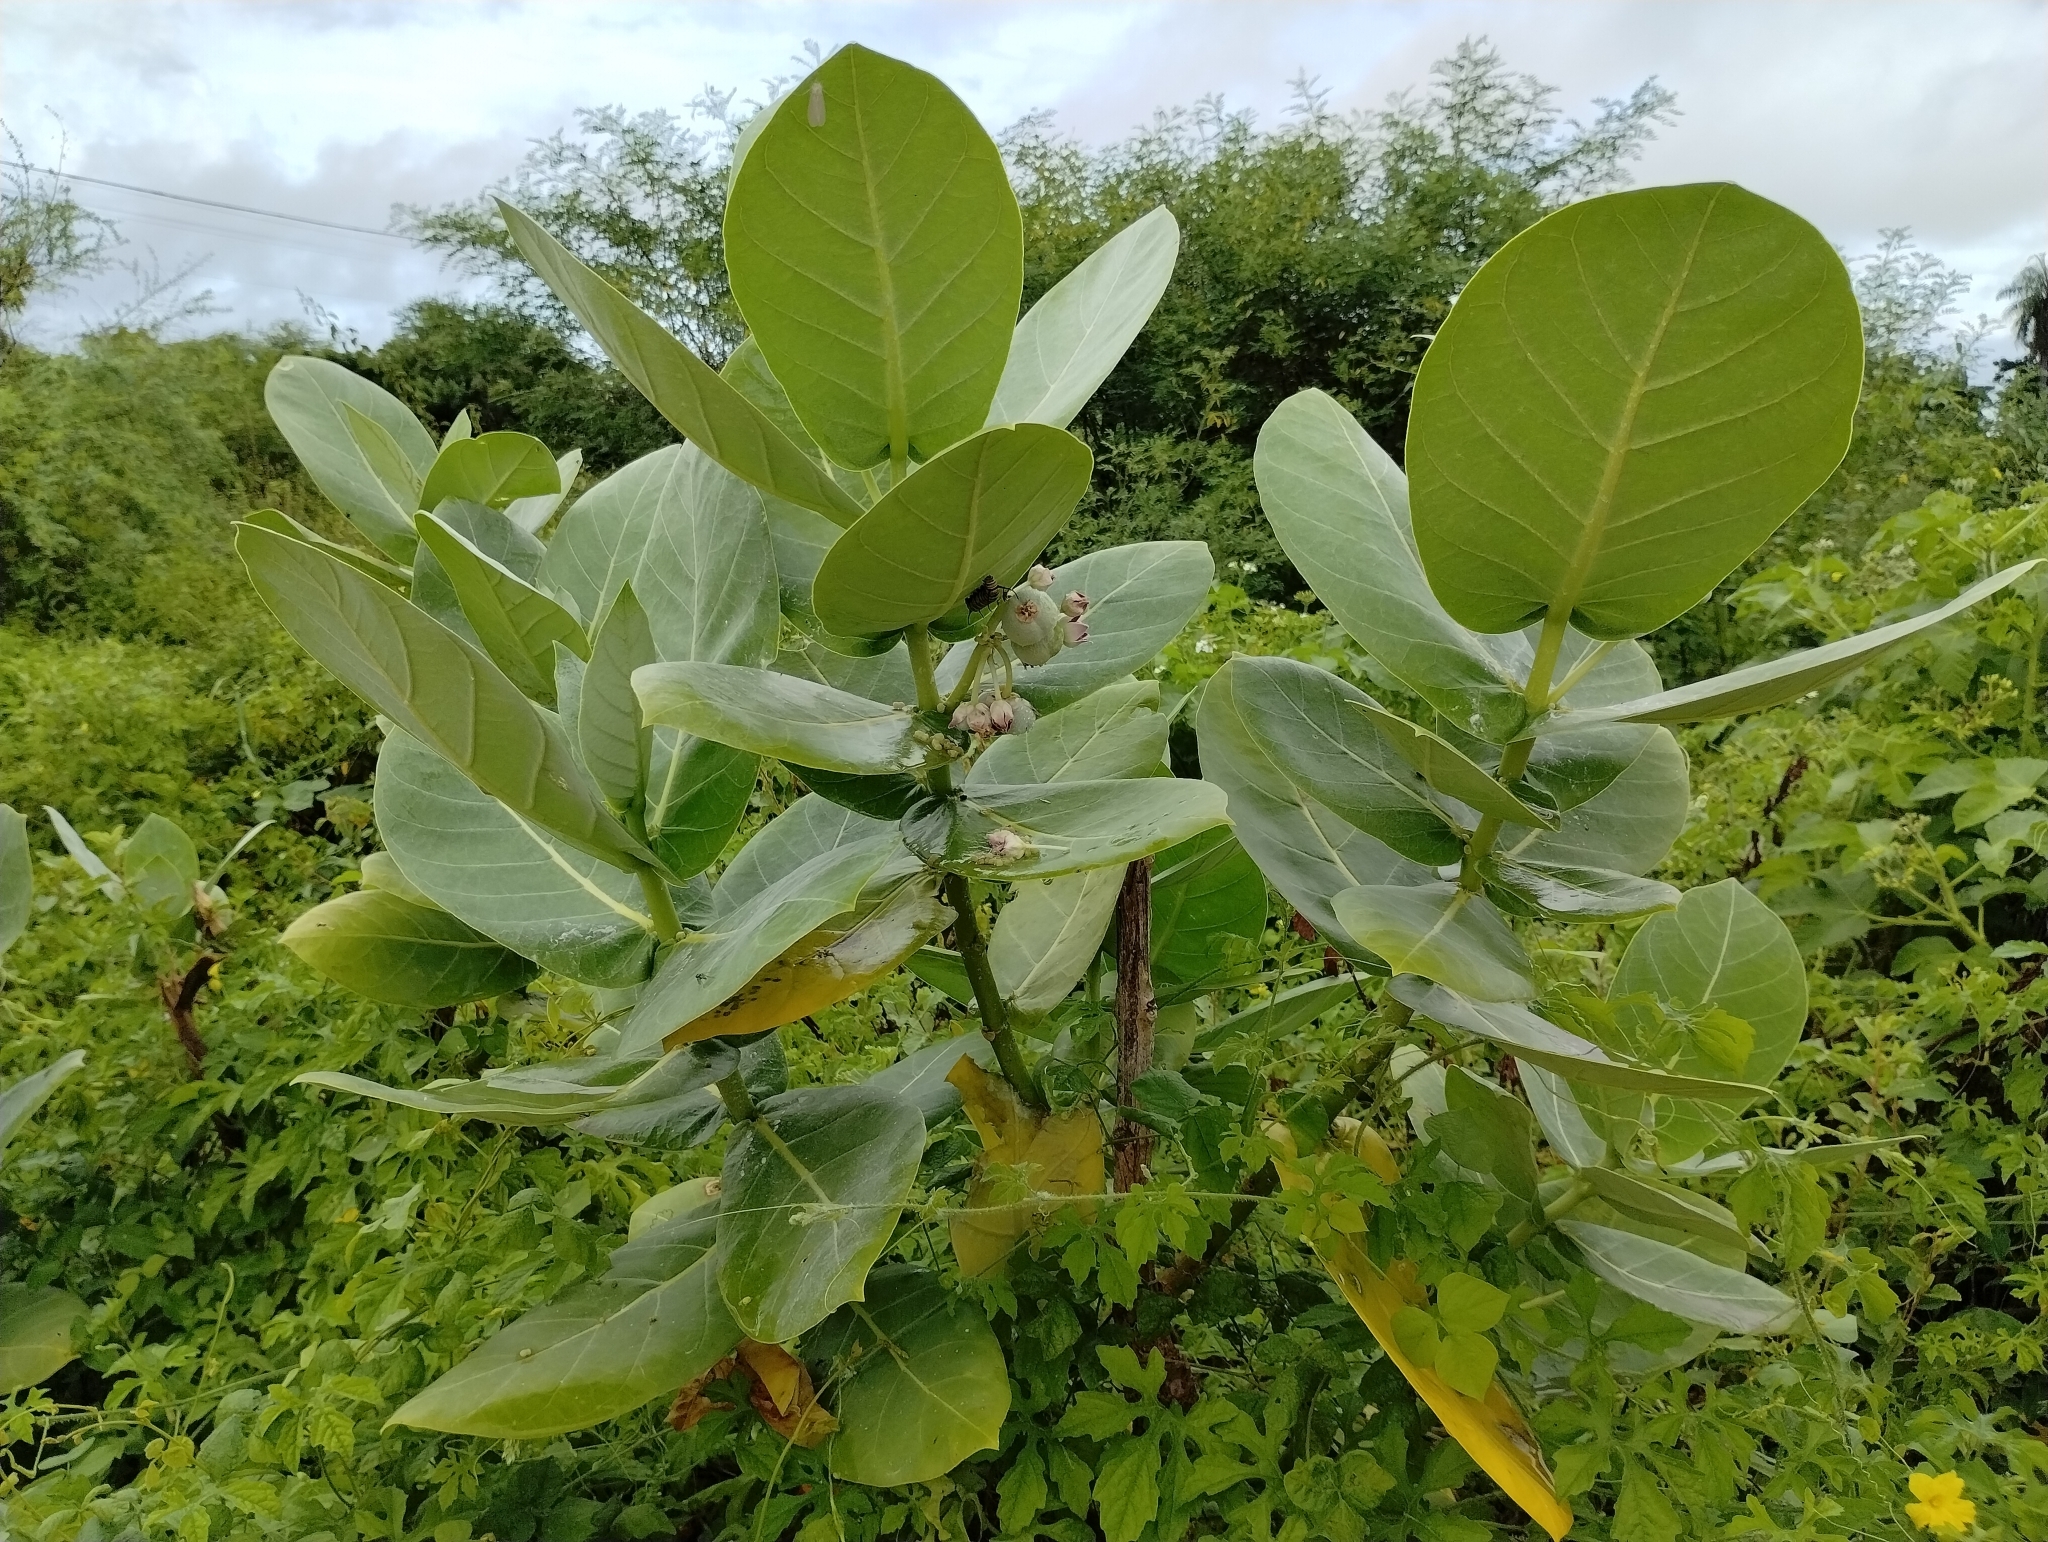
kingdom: Plantae
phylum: Tracheophyta
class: Magnoliopsida
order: Gentianales
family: Apocynaceae
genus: Calotropis
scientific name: Calotropis procera
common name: Roostertree
